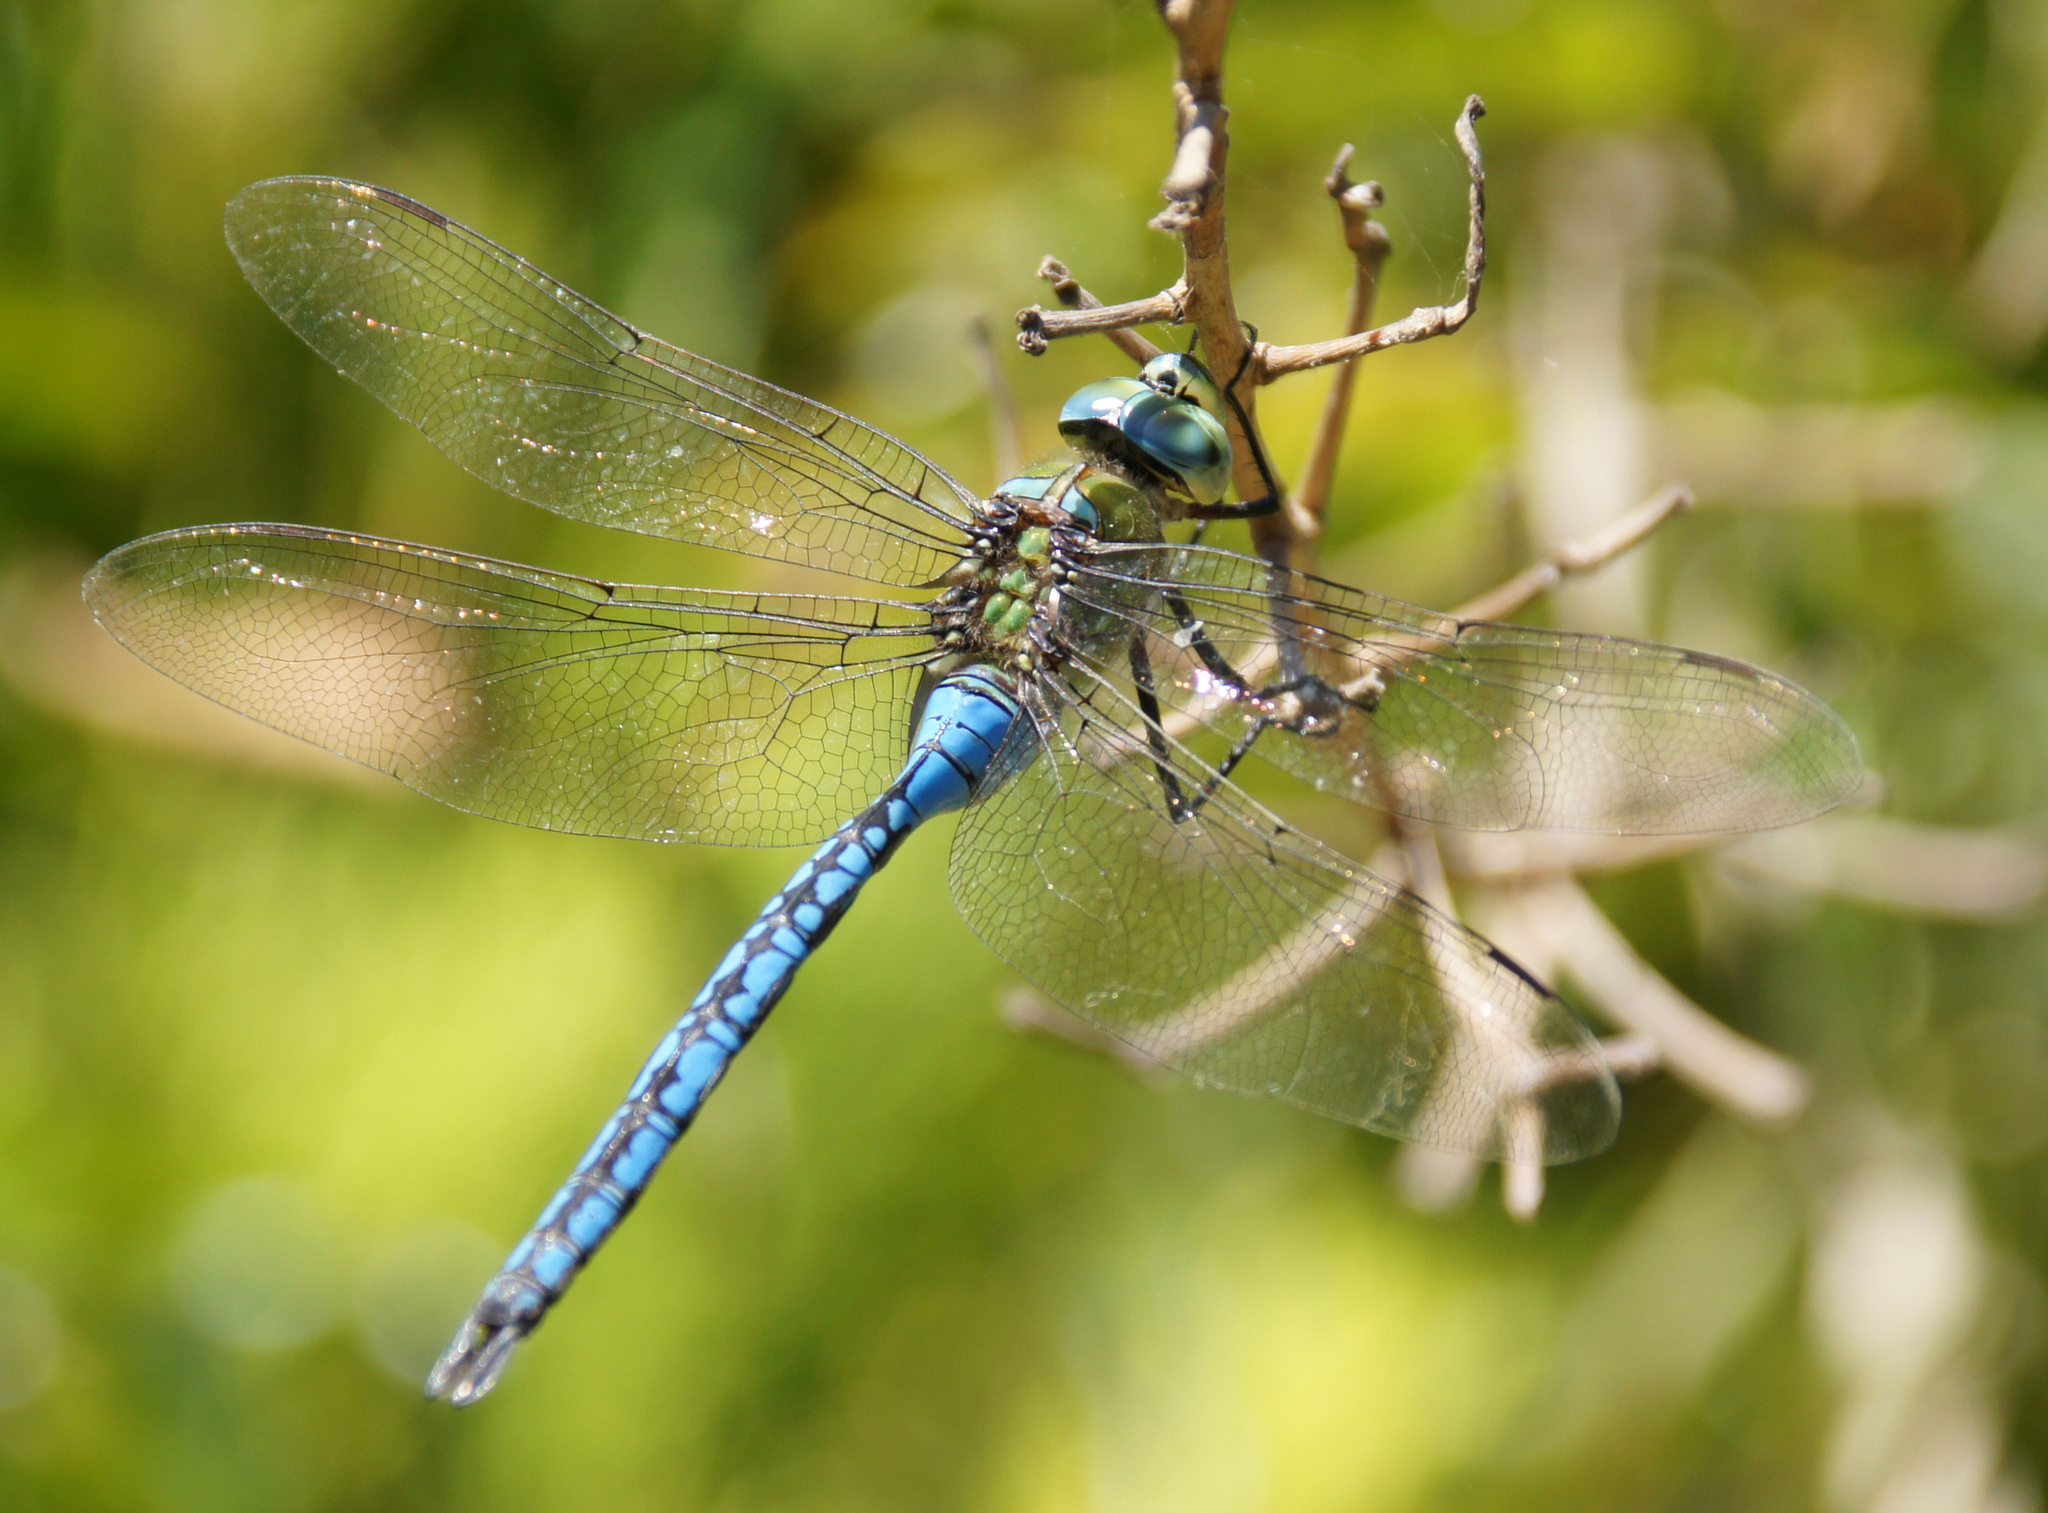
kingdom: Animalia
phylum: Arthropoda
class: Insecta
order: Odonata
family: Aeshnidae
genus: Anax
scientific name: Anax imperator
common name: Emperor dragonfly
